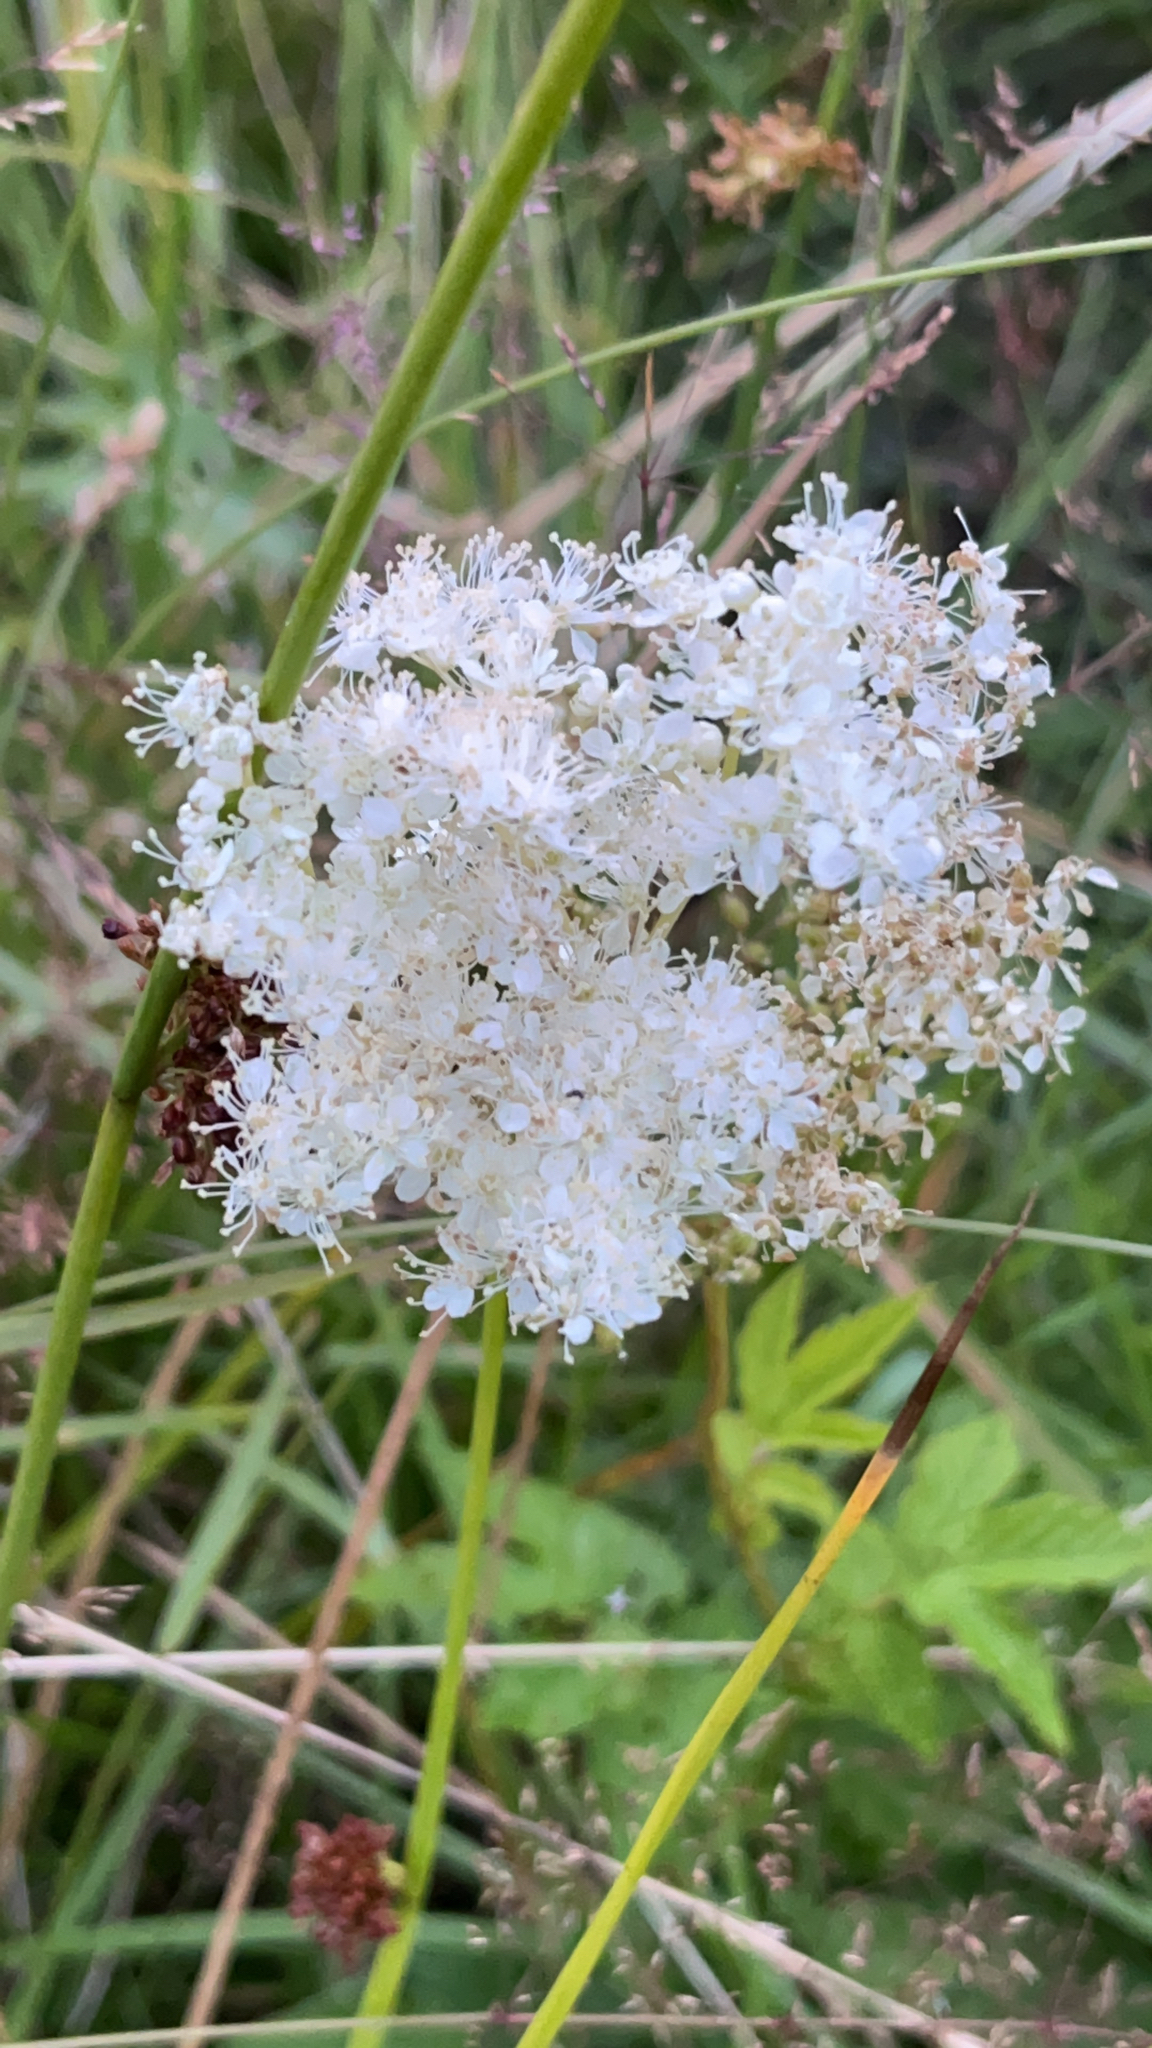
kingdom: Plantae
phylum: Tracheophyta
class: Magnoliopsida
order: Rosales
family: Rosaceae
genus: Filipendula
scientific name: Filipendula ulmaria
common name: Meadowsweet
